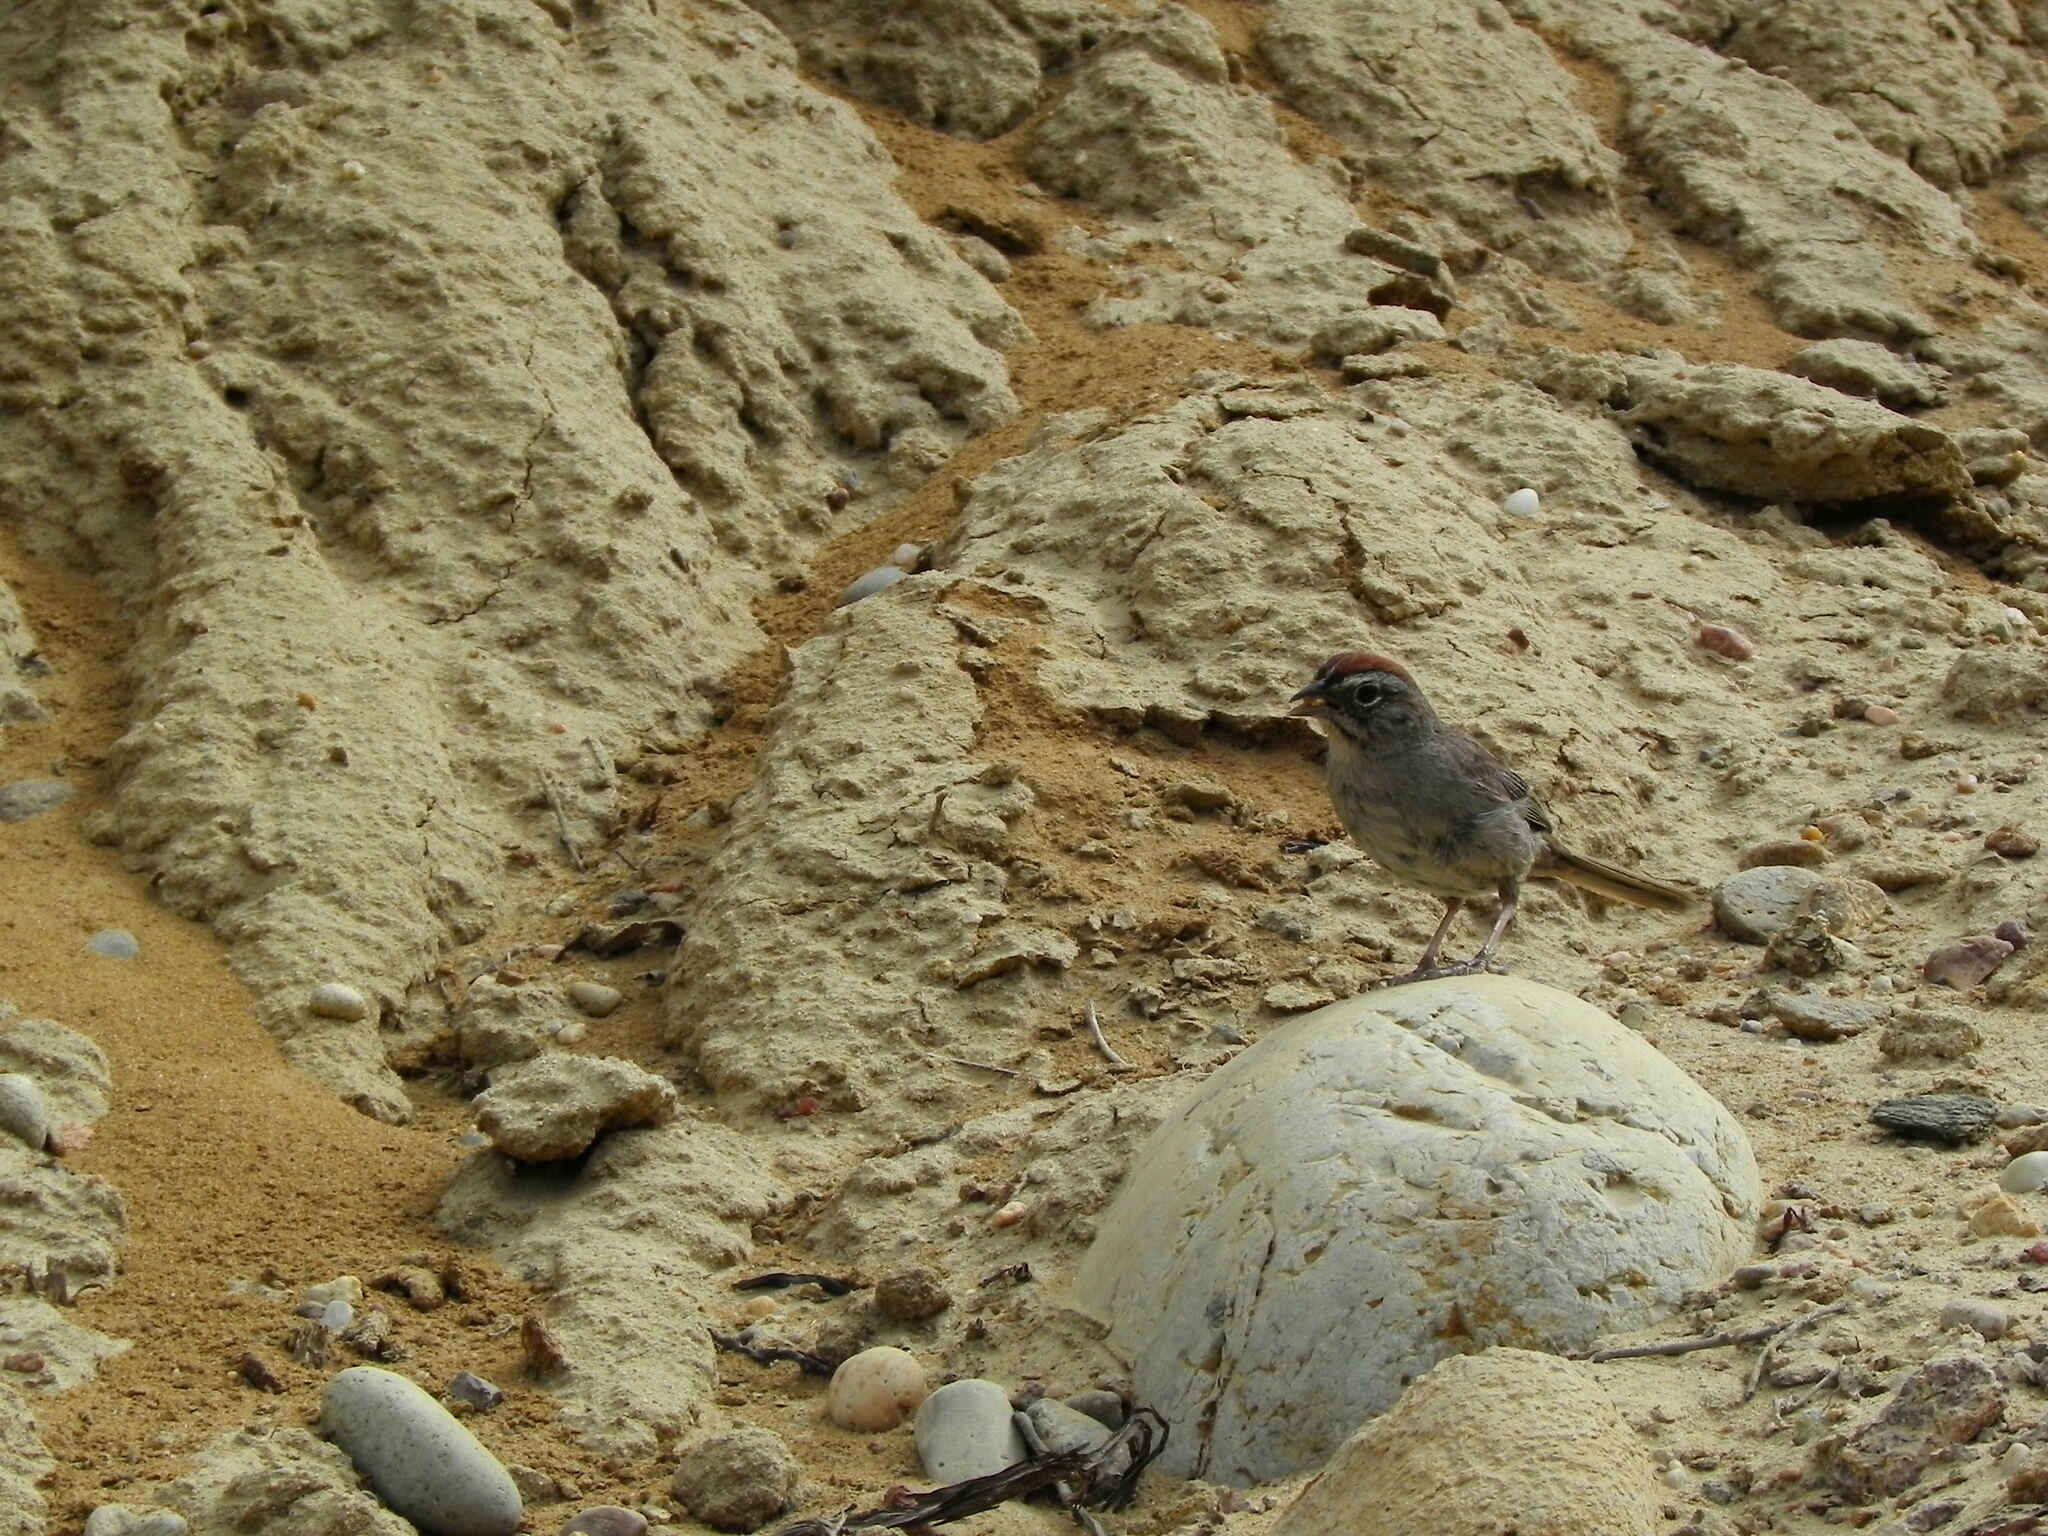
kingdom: Animalia
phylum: Chordata
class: Aves
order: Passeriformes
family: Passerellidae
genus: Aimophila
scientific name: Aimophila ruficeps
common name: Rufous-crowned sparrow
